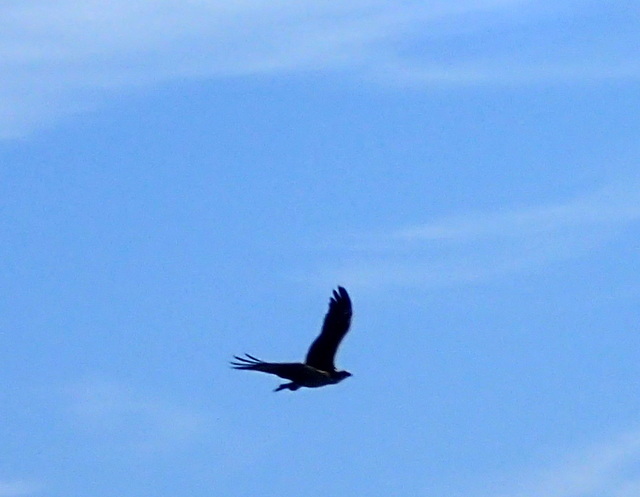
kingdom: Animalia
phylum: Chordata
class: Aves
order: Accipitriformes
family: Pandionidae
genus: Pandion
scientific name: Pandion haliaetus
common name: Osprey
